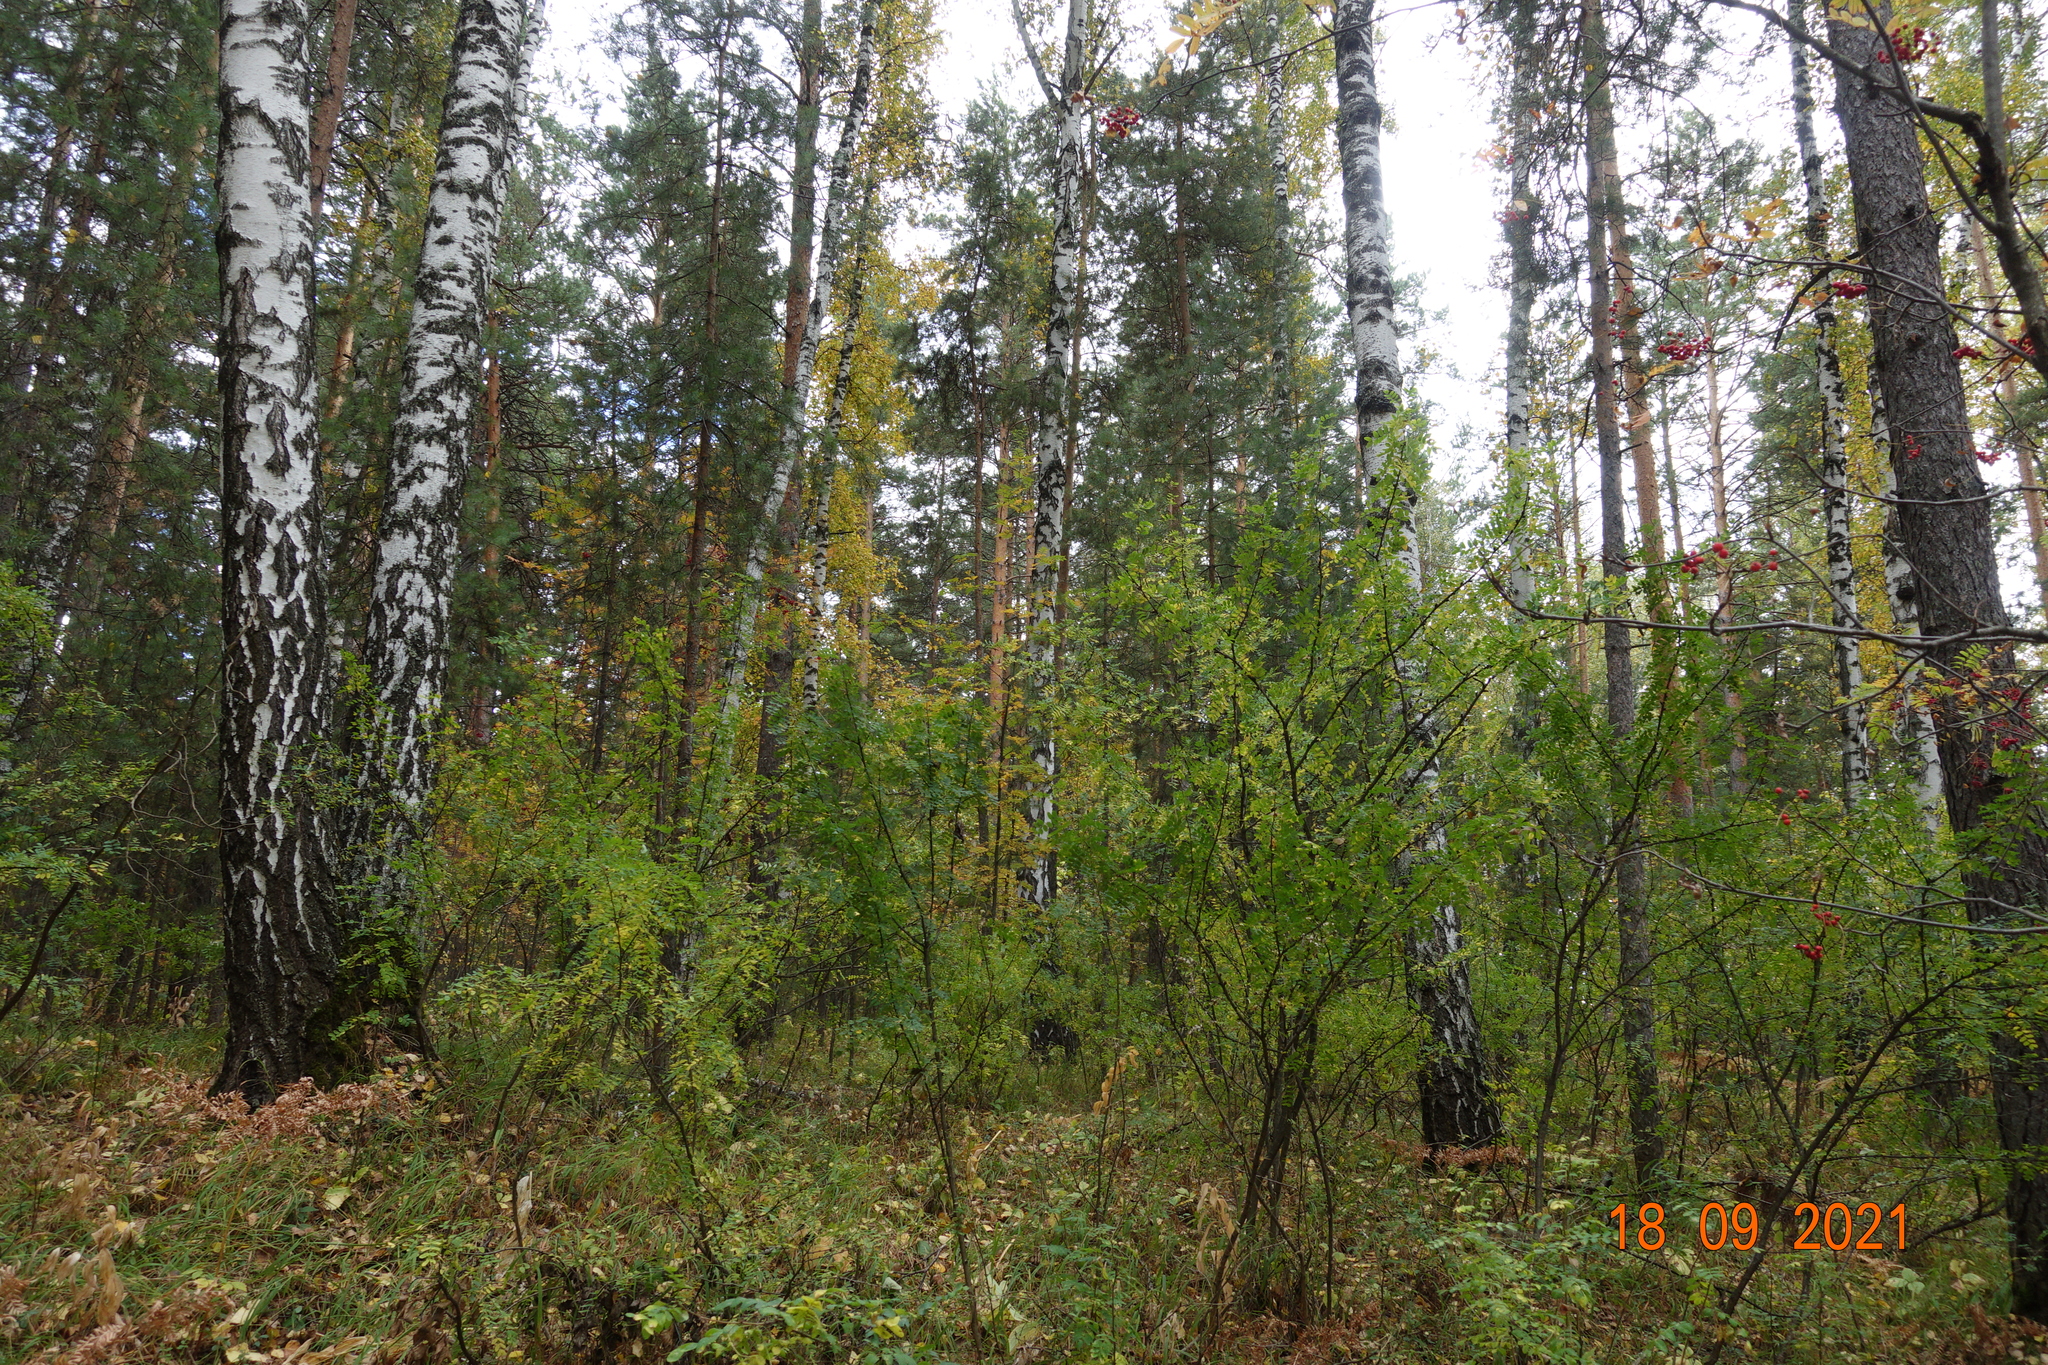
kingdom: Plantae
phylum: Tracheophyta
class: Magnoliopsida
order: Fabales
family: Fabaceae
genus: Caragana
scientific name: Caragana arborescens
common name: Siberian peashrub
